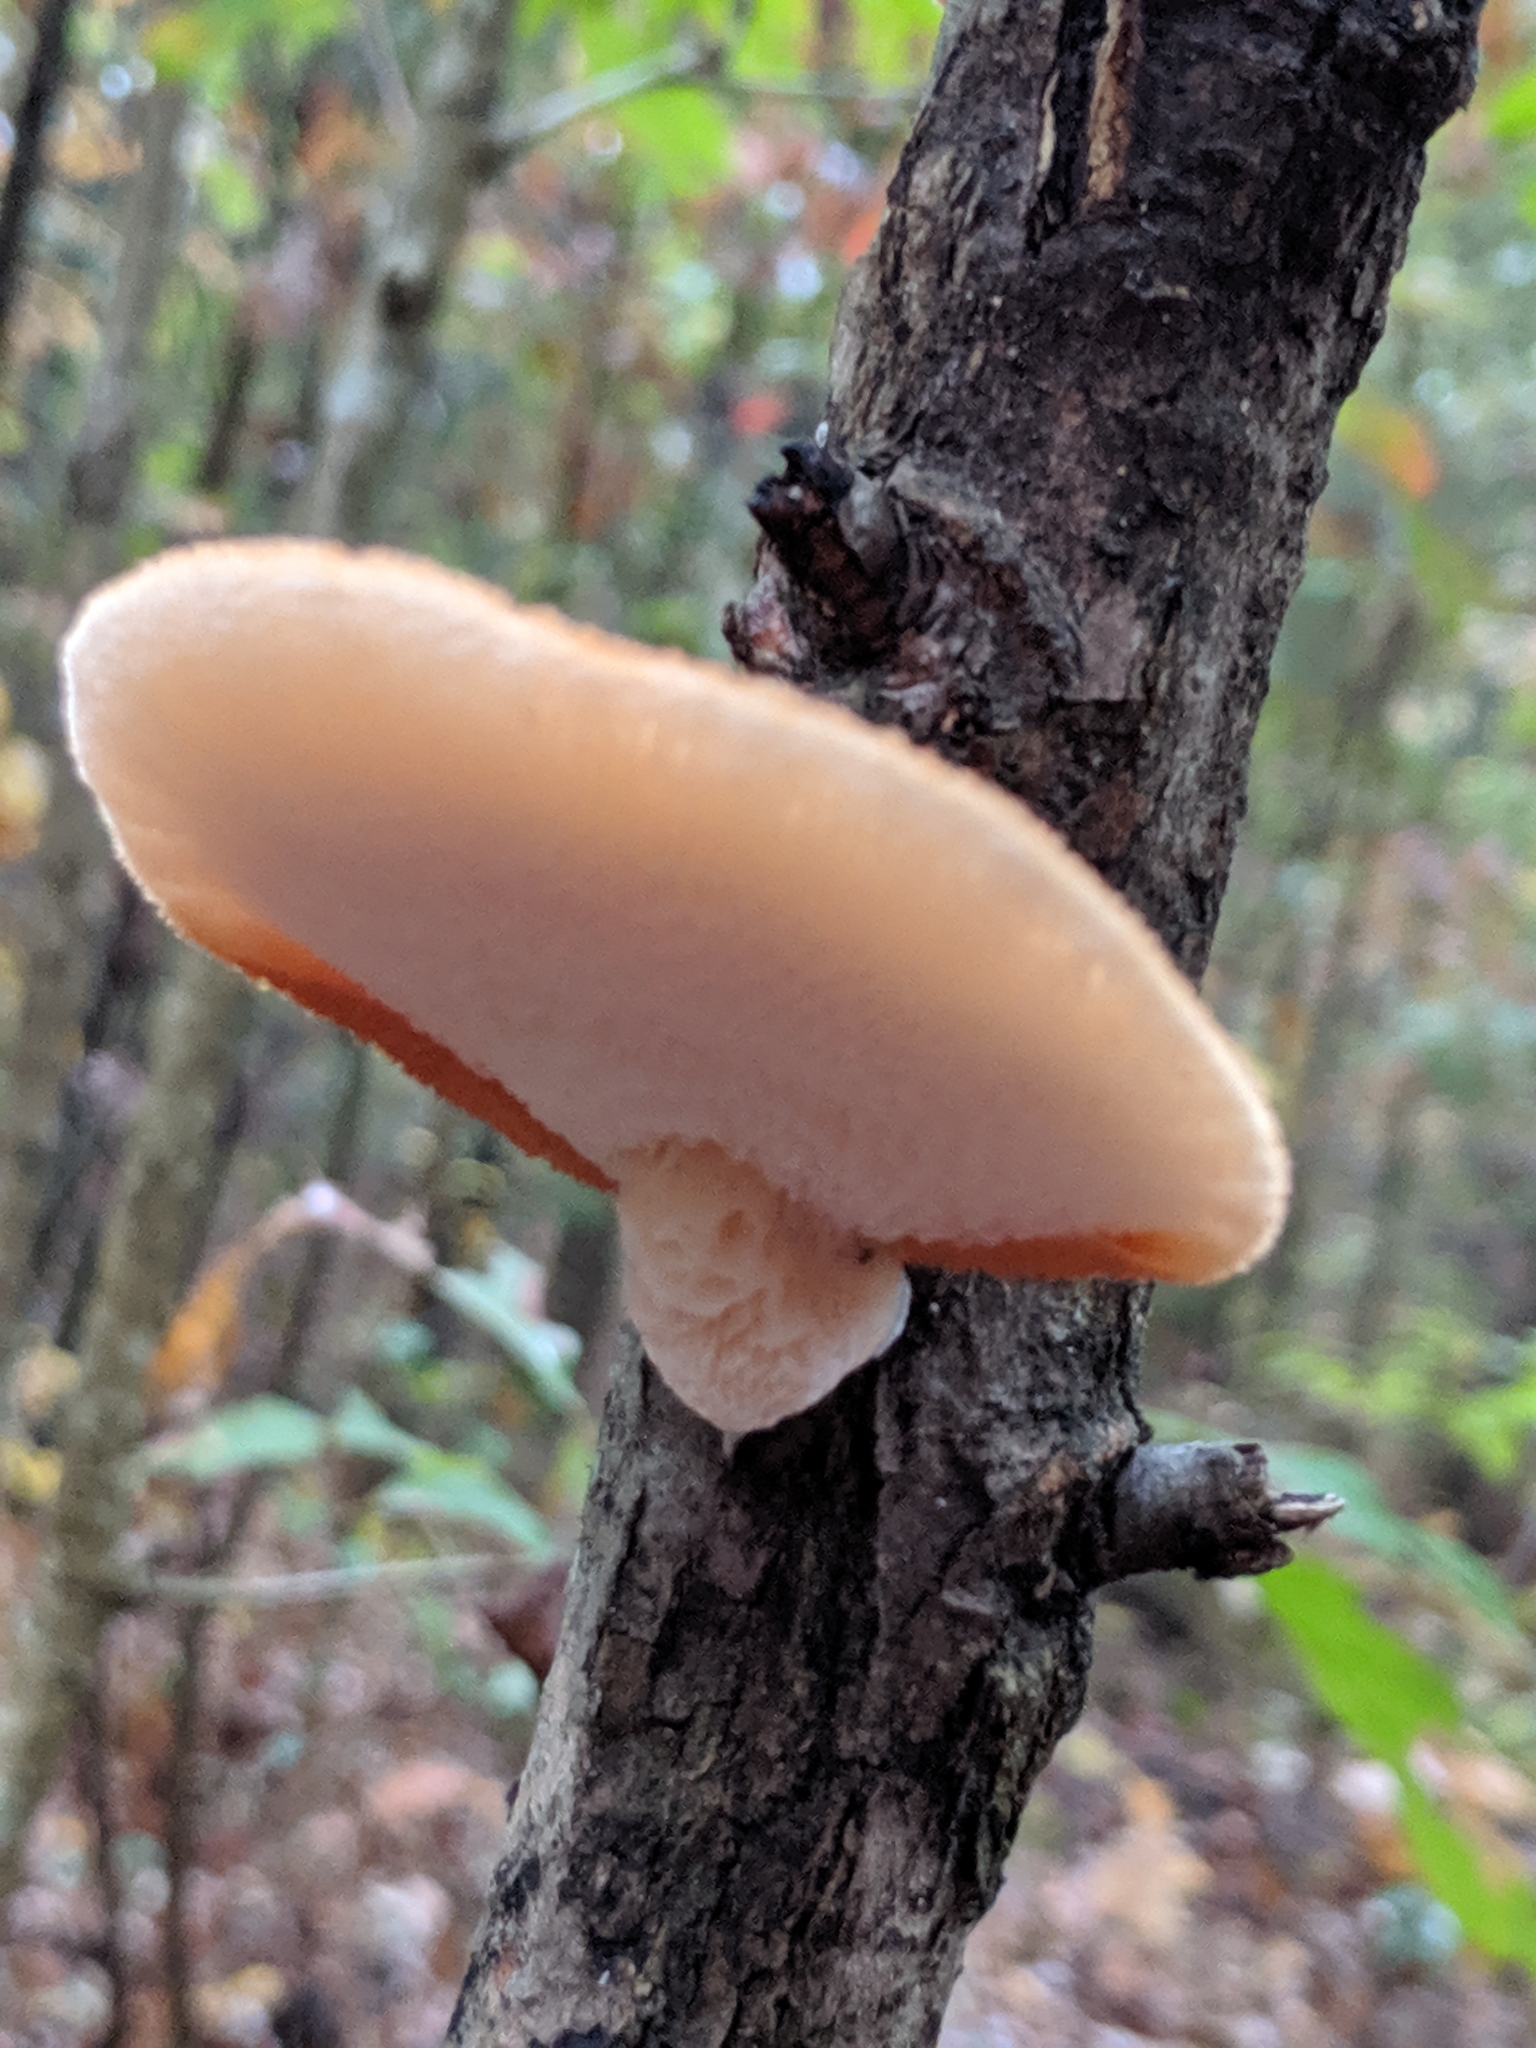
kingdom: Fungi
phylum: Basidiomycota
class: Agaricomycetes
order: Polyporales
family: Polyporaceae
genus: Neofavolus
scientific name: Neofavolus alveolaris
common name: Hexagonal-pored polypore
